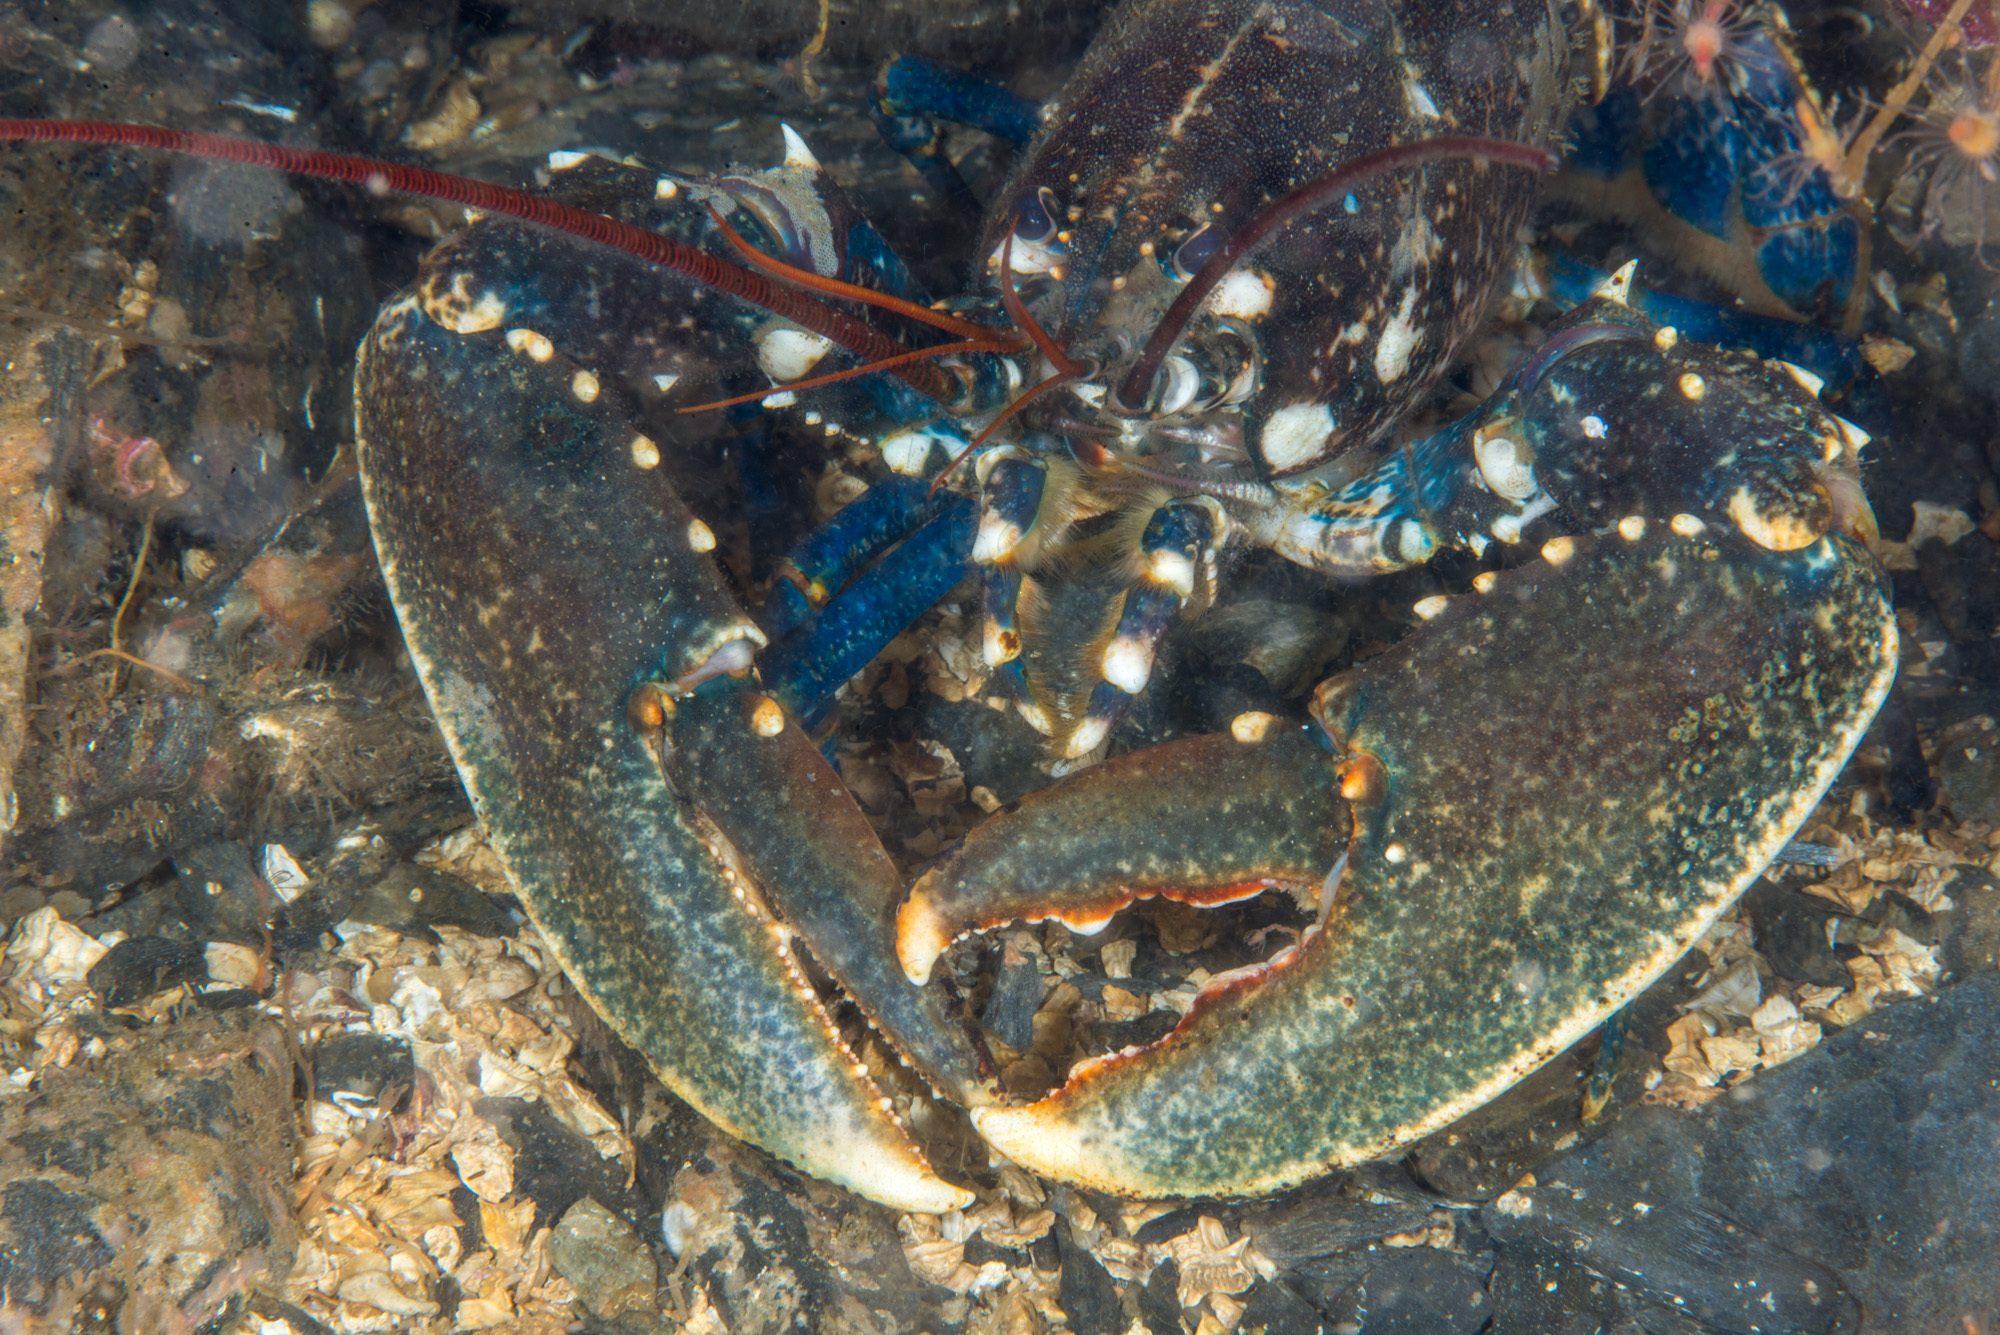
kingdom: Animalia
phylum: Arthropoda
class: Malacostraca
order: Decapoda
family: Nephropidae
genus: Homarus
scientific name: Homarus gammarus
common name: European lobster
